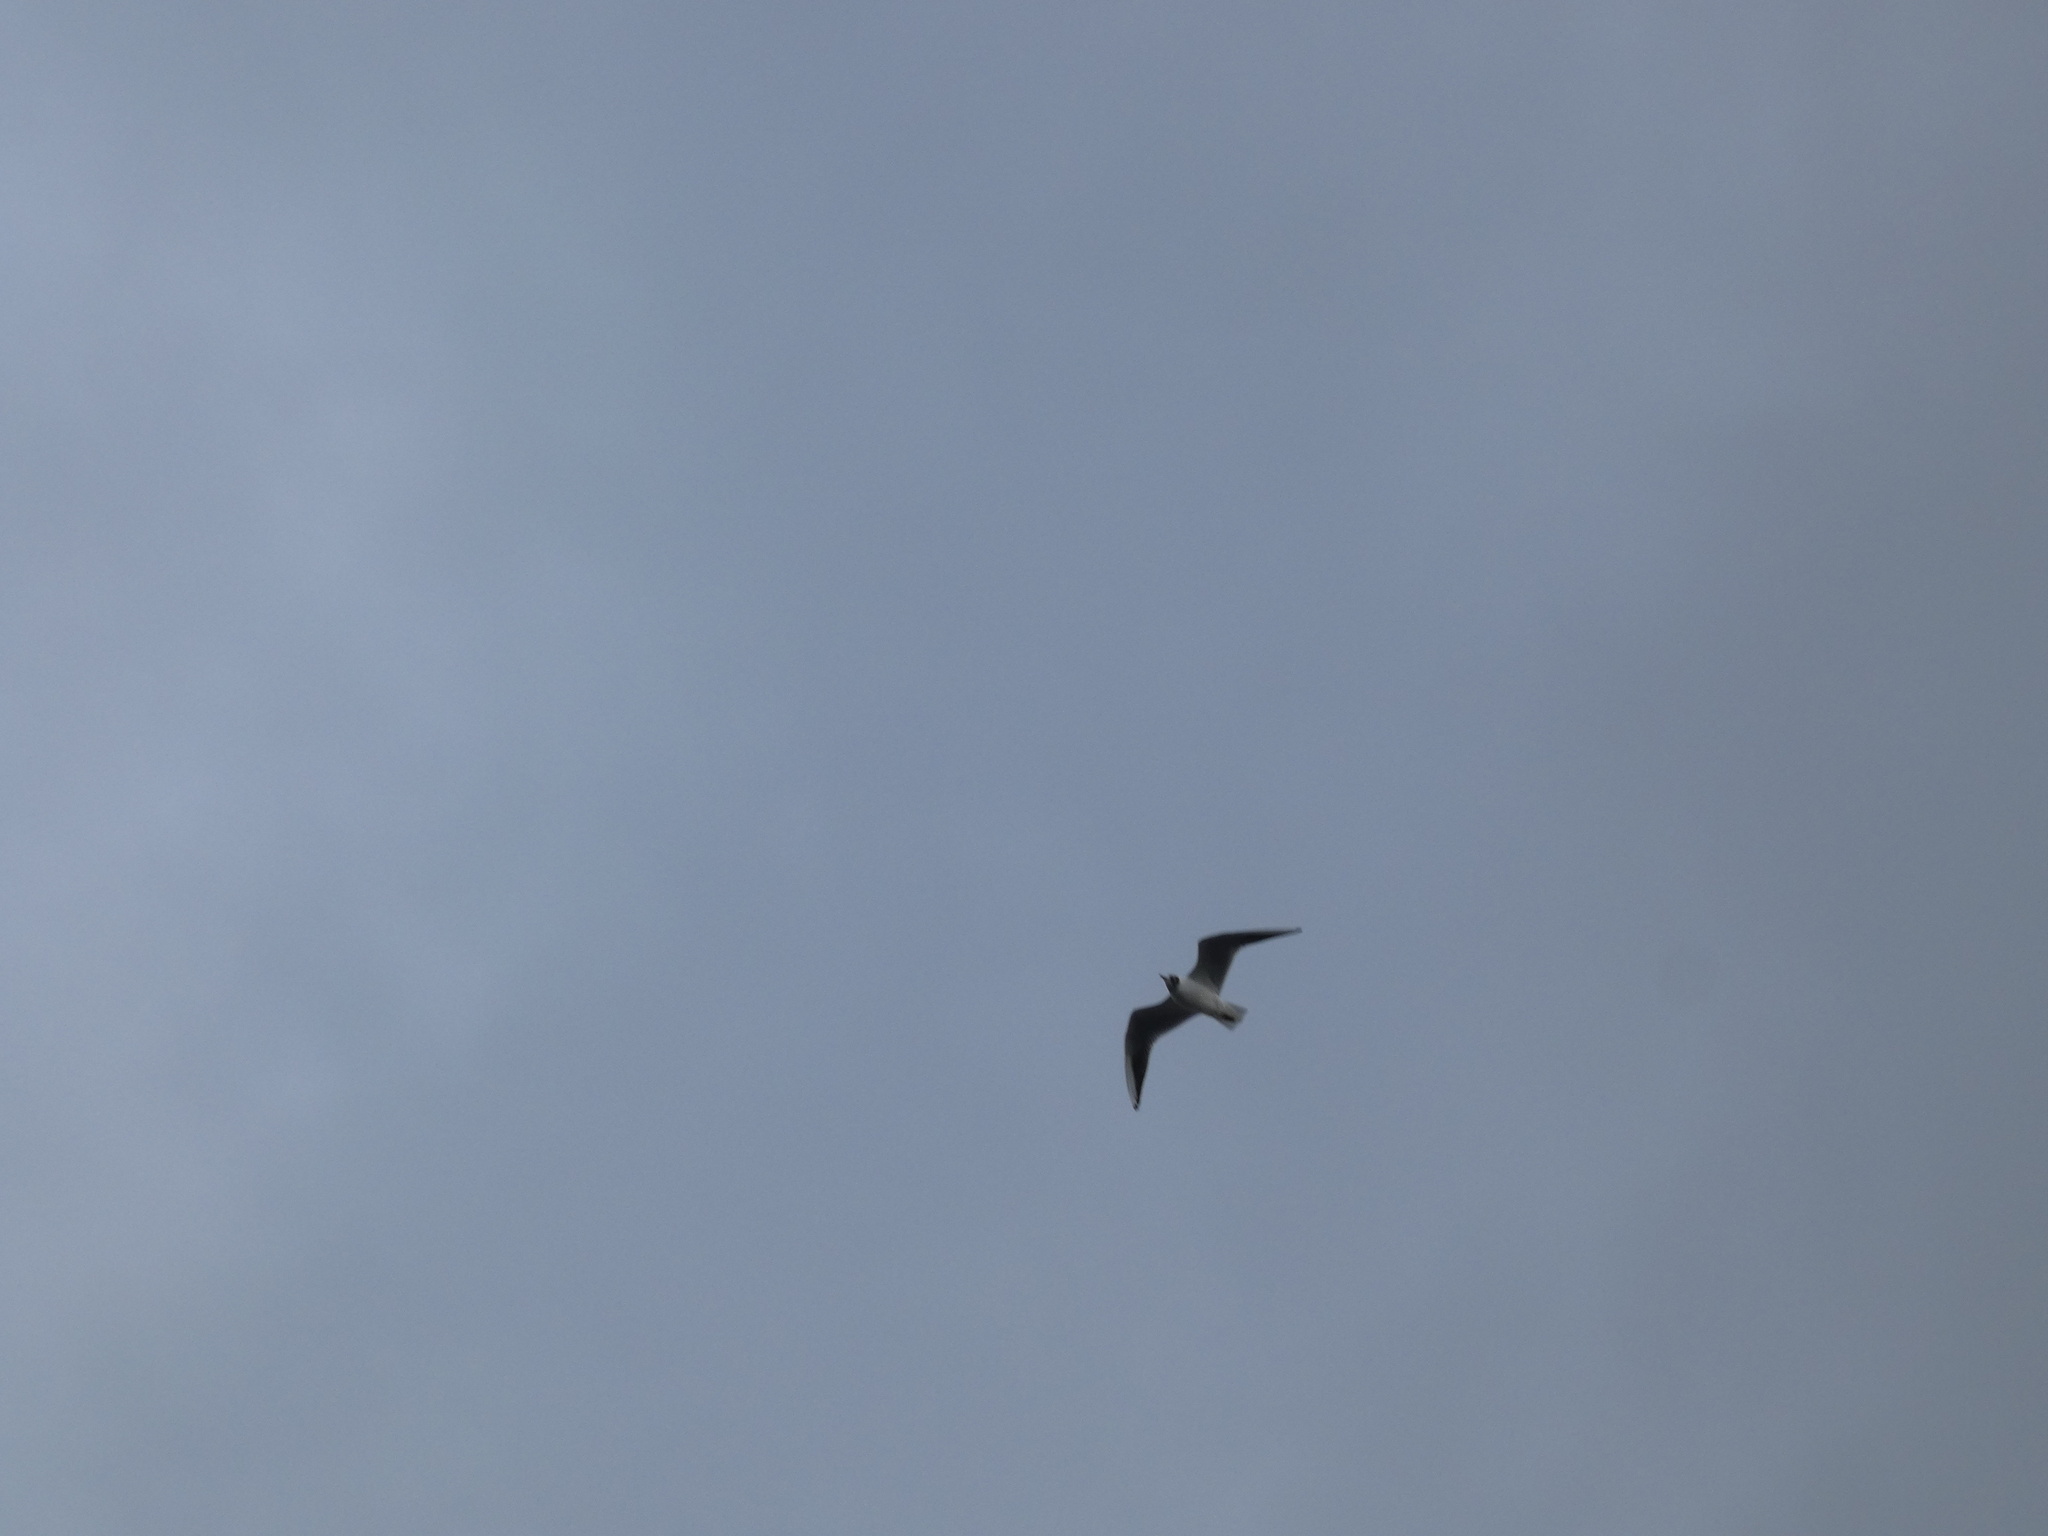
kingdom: Animalia
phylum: Chordata
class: Aves
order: Charadriiformes
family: Laridae
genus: Chroicocephalus
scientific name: Chroicocephalus ridibundus
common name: Black-headed gull
